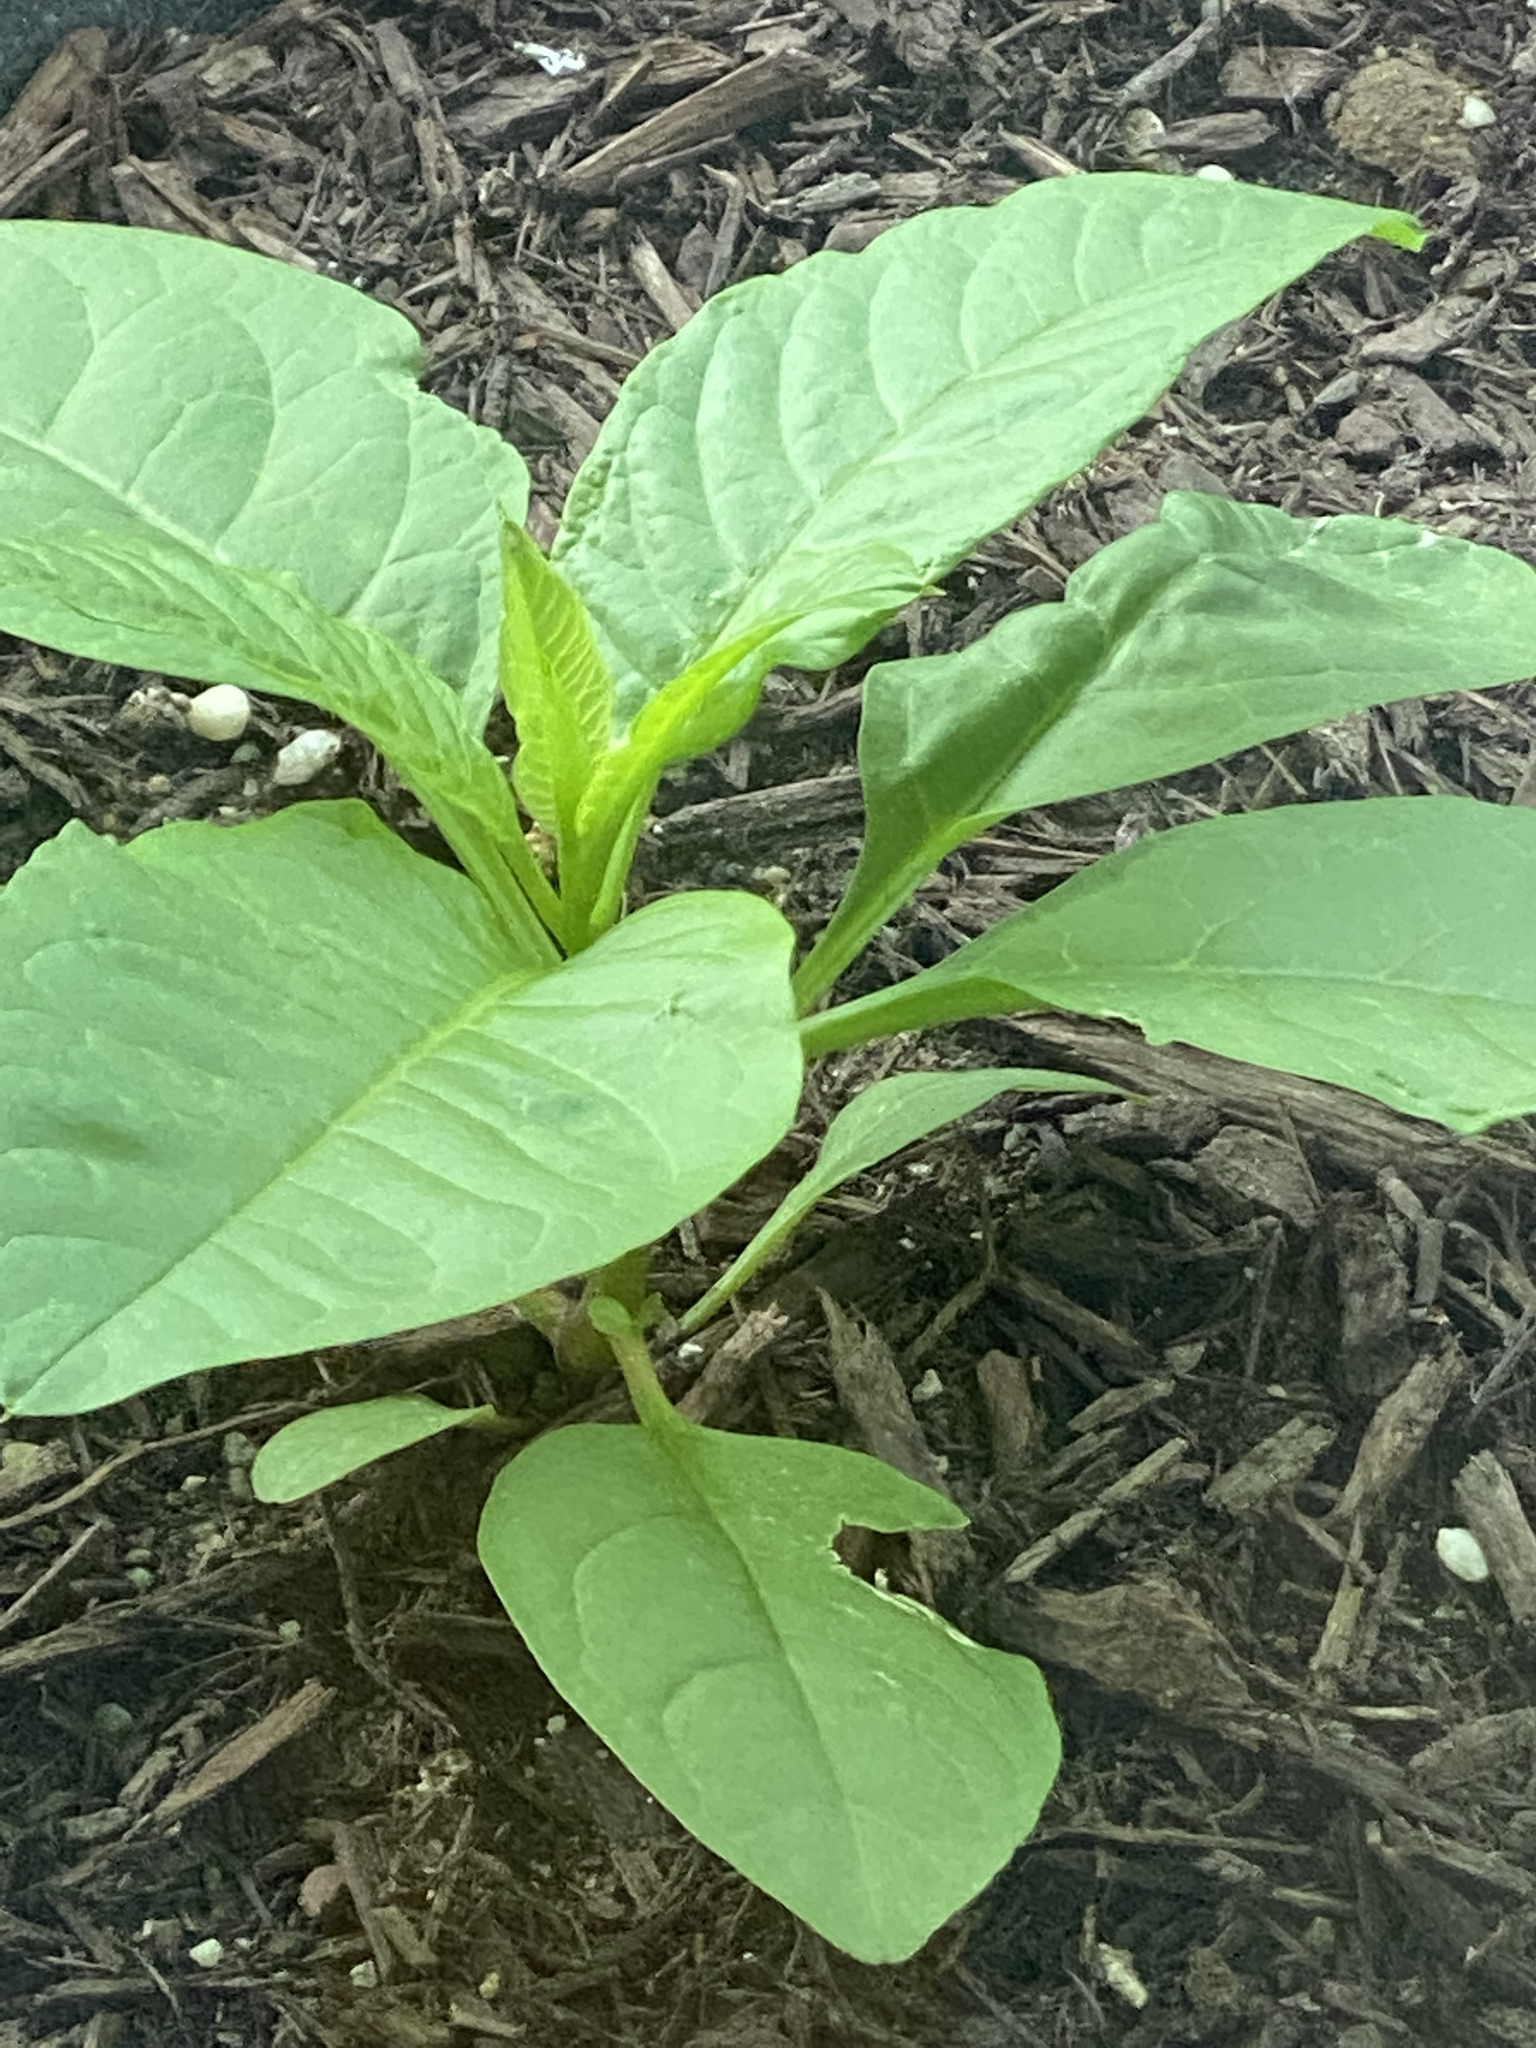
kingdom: Plantae
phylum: Tracheophyta
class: Magnoliopsida
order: Caryophyllales
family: Phytolaccaceae
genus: Phytolacca
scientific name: Phytolacca americana
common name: American pokeweed
